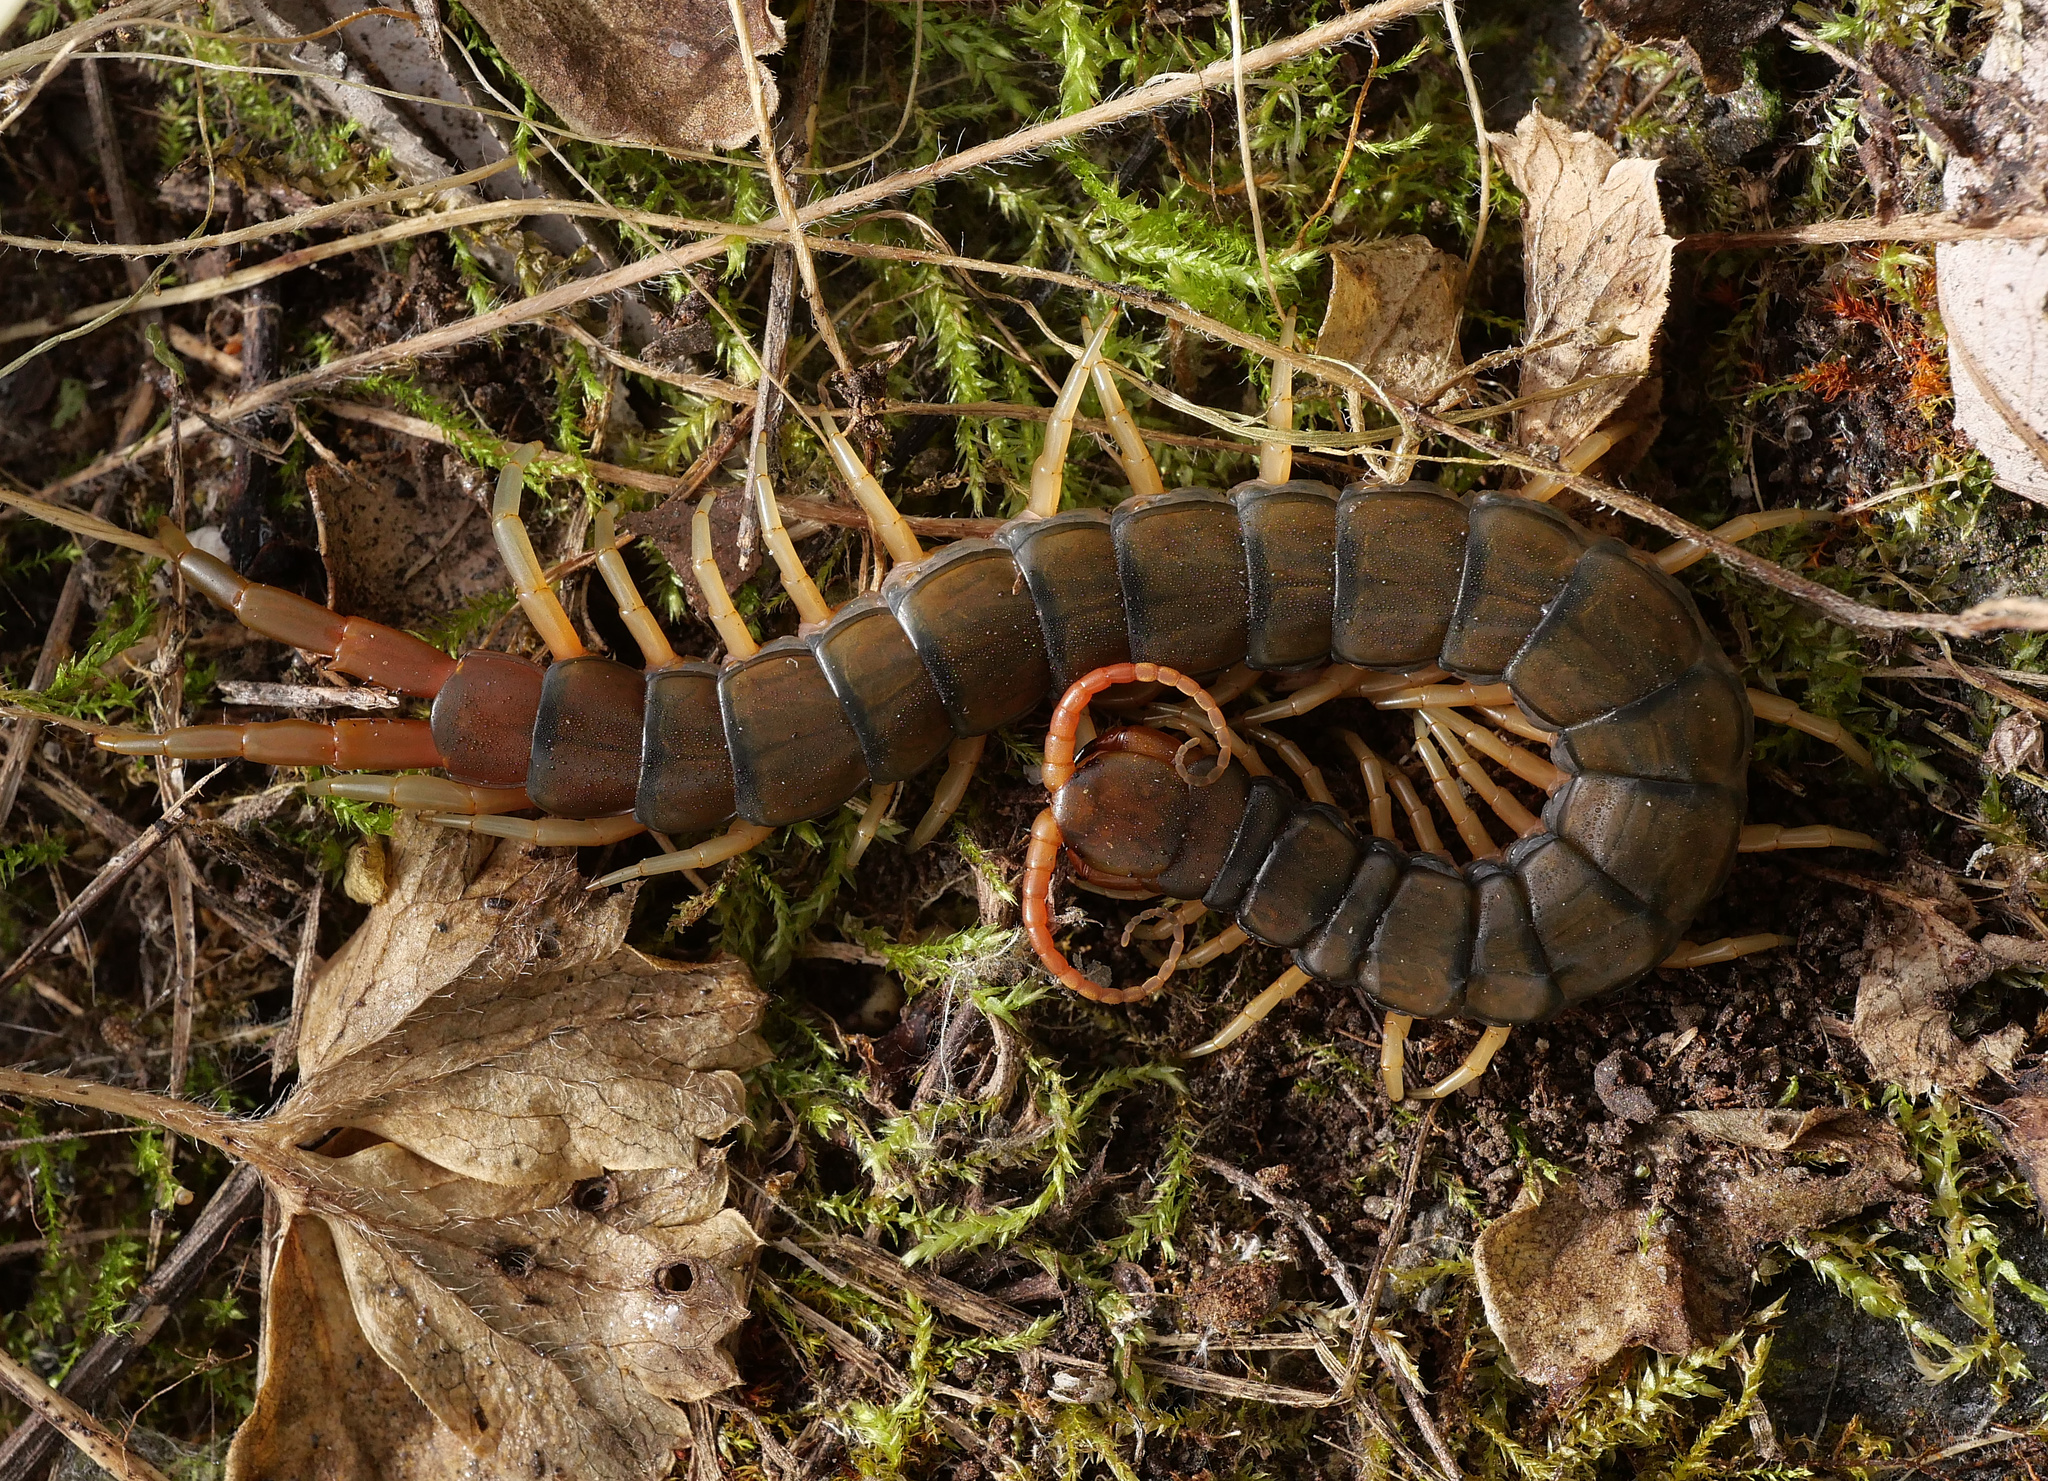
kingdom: Animalia
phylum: Arthropoda
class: Chilopoda
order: Scolopendromorpha
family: Scolopendridae
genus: Scolopendra
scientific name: Scolopendra cingulata
